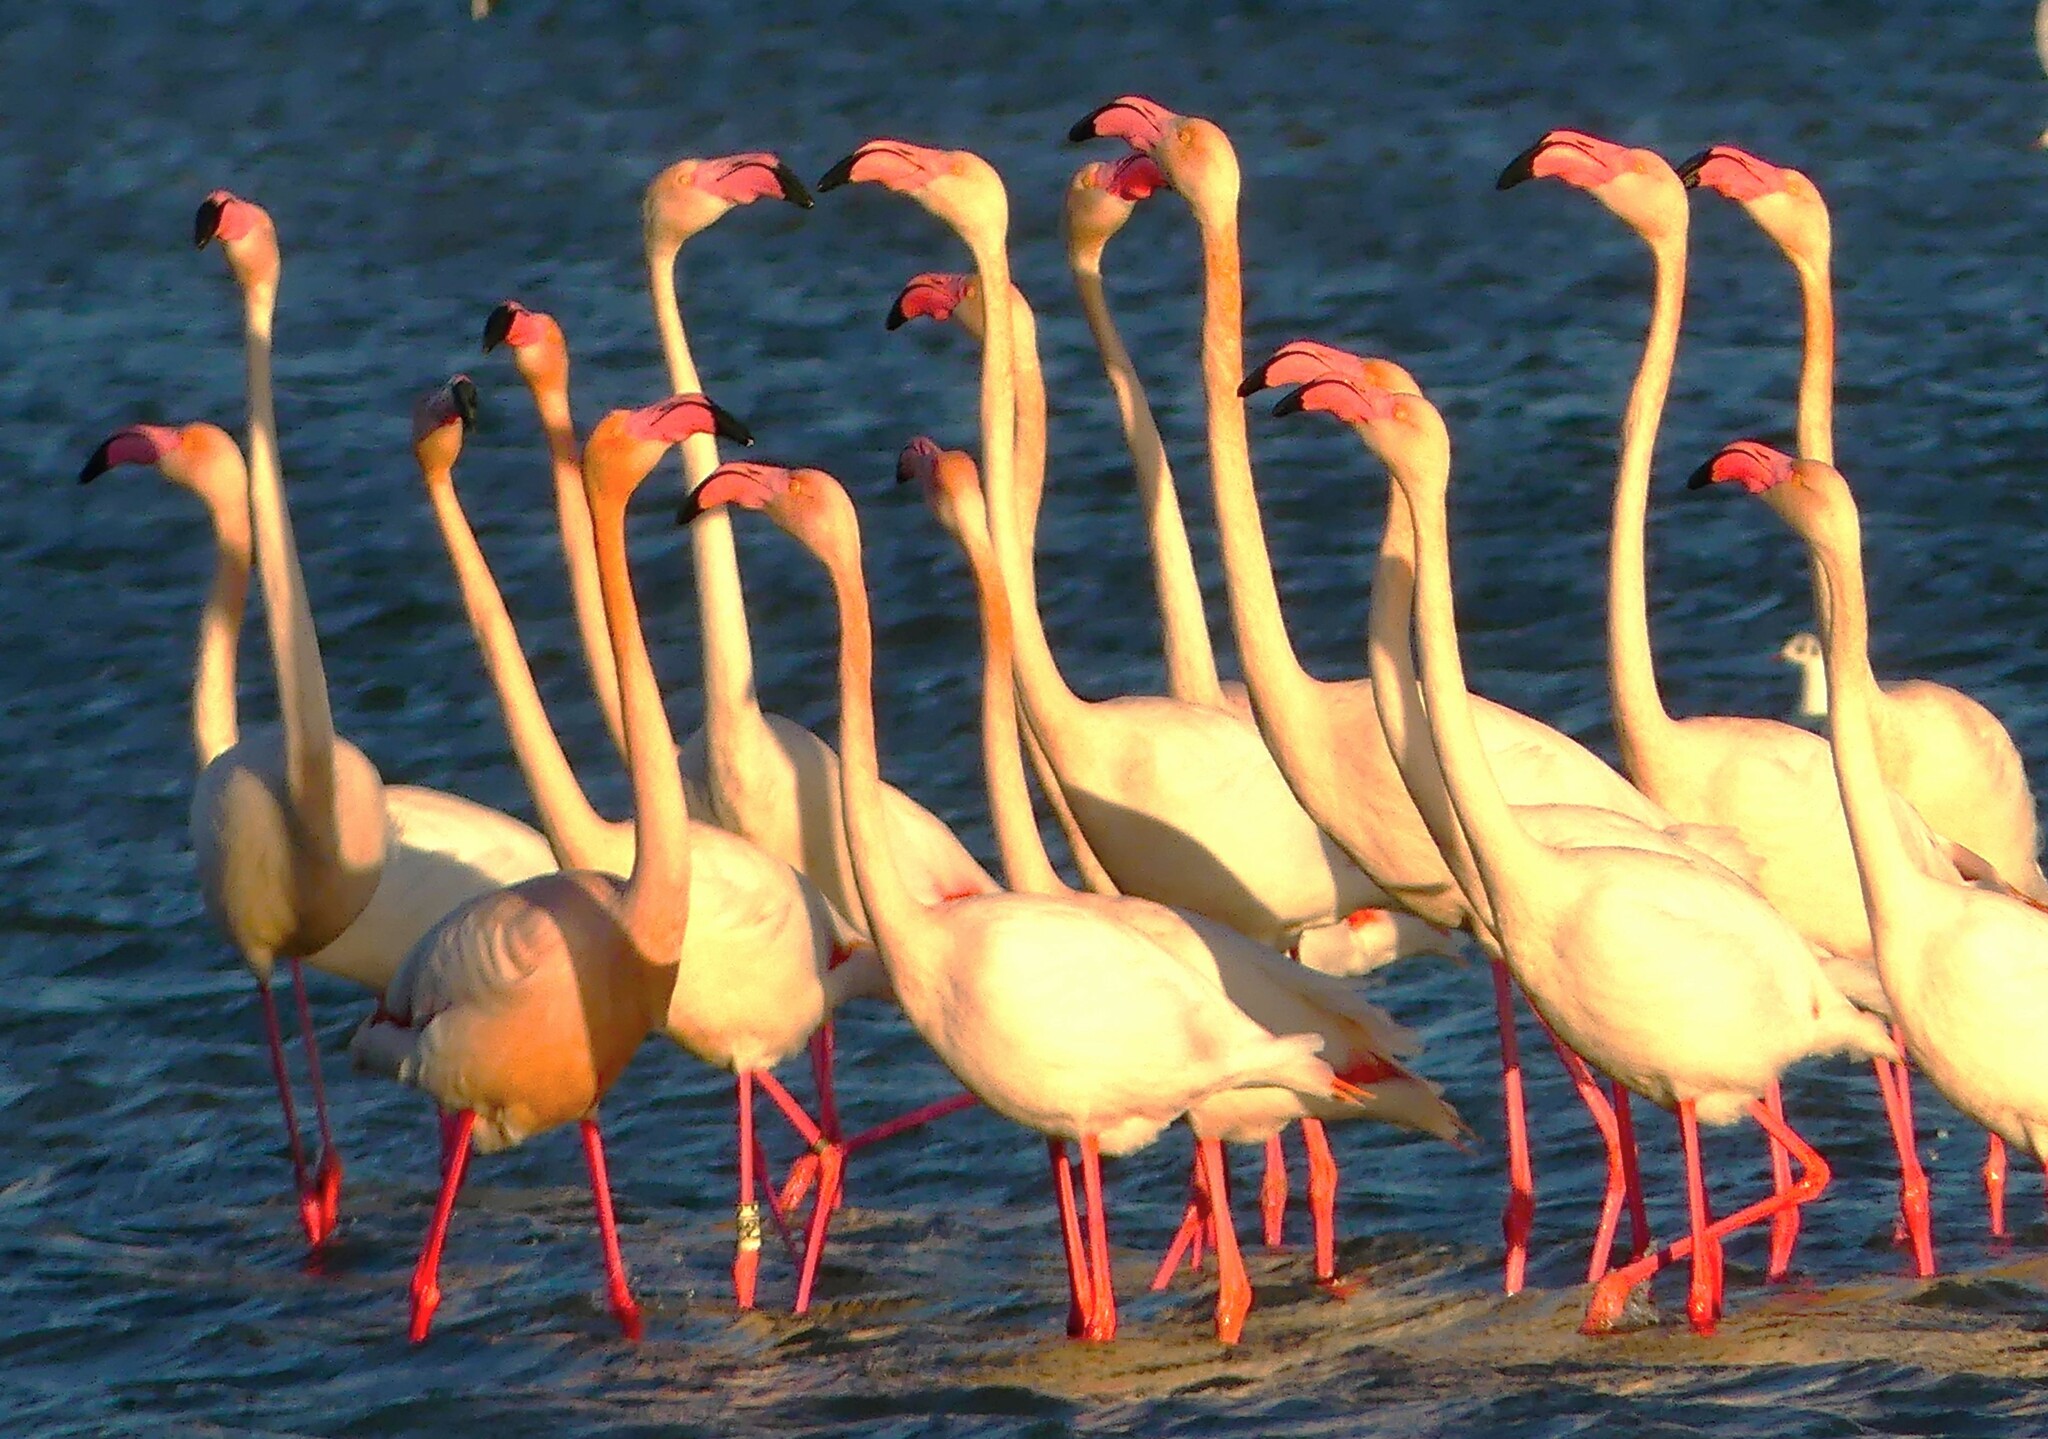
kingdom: Animalia
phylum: Chordata
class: Aves
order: Phoenicopteriformes
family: Phoenicopteridae
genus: Phoenicopterus
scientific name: Phoenicopterus roseus
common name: Greater flamingo
